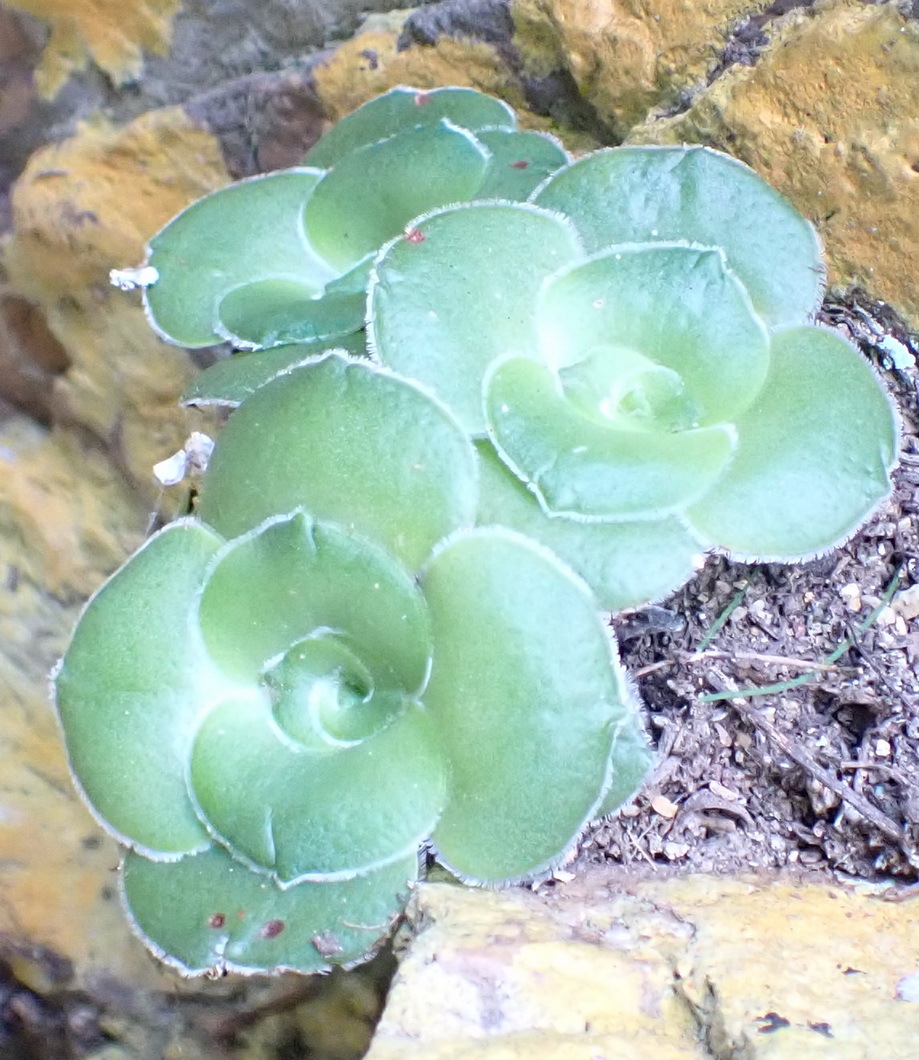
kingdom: Plantae
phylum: Tracheophyta
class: Magnoliopsida
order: Saxifragales
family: Crassulaceae
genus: Crassula
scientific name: Crassula cremnophila
